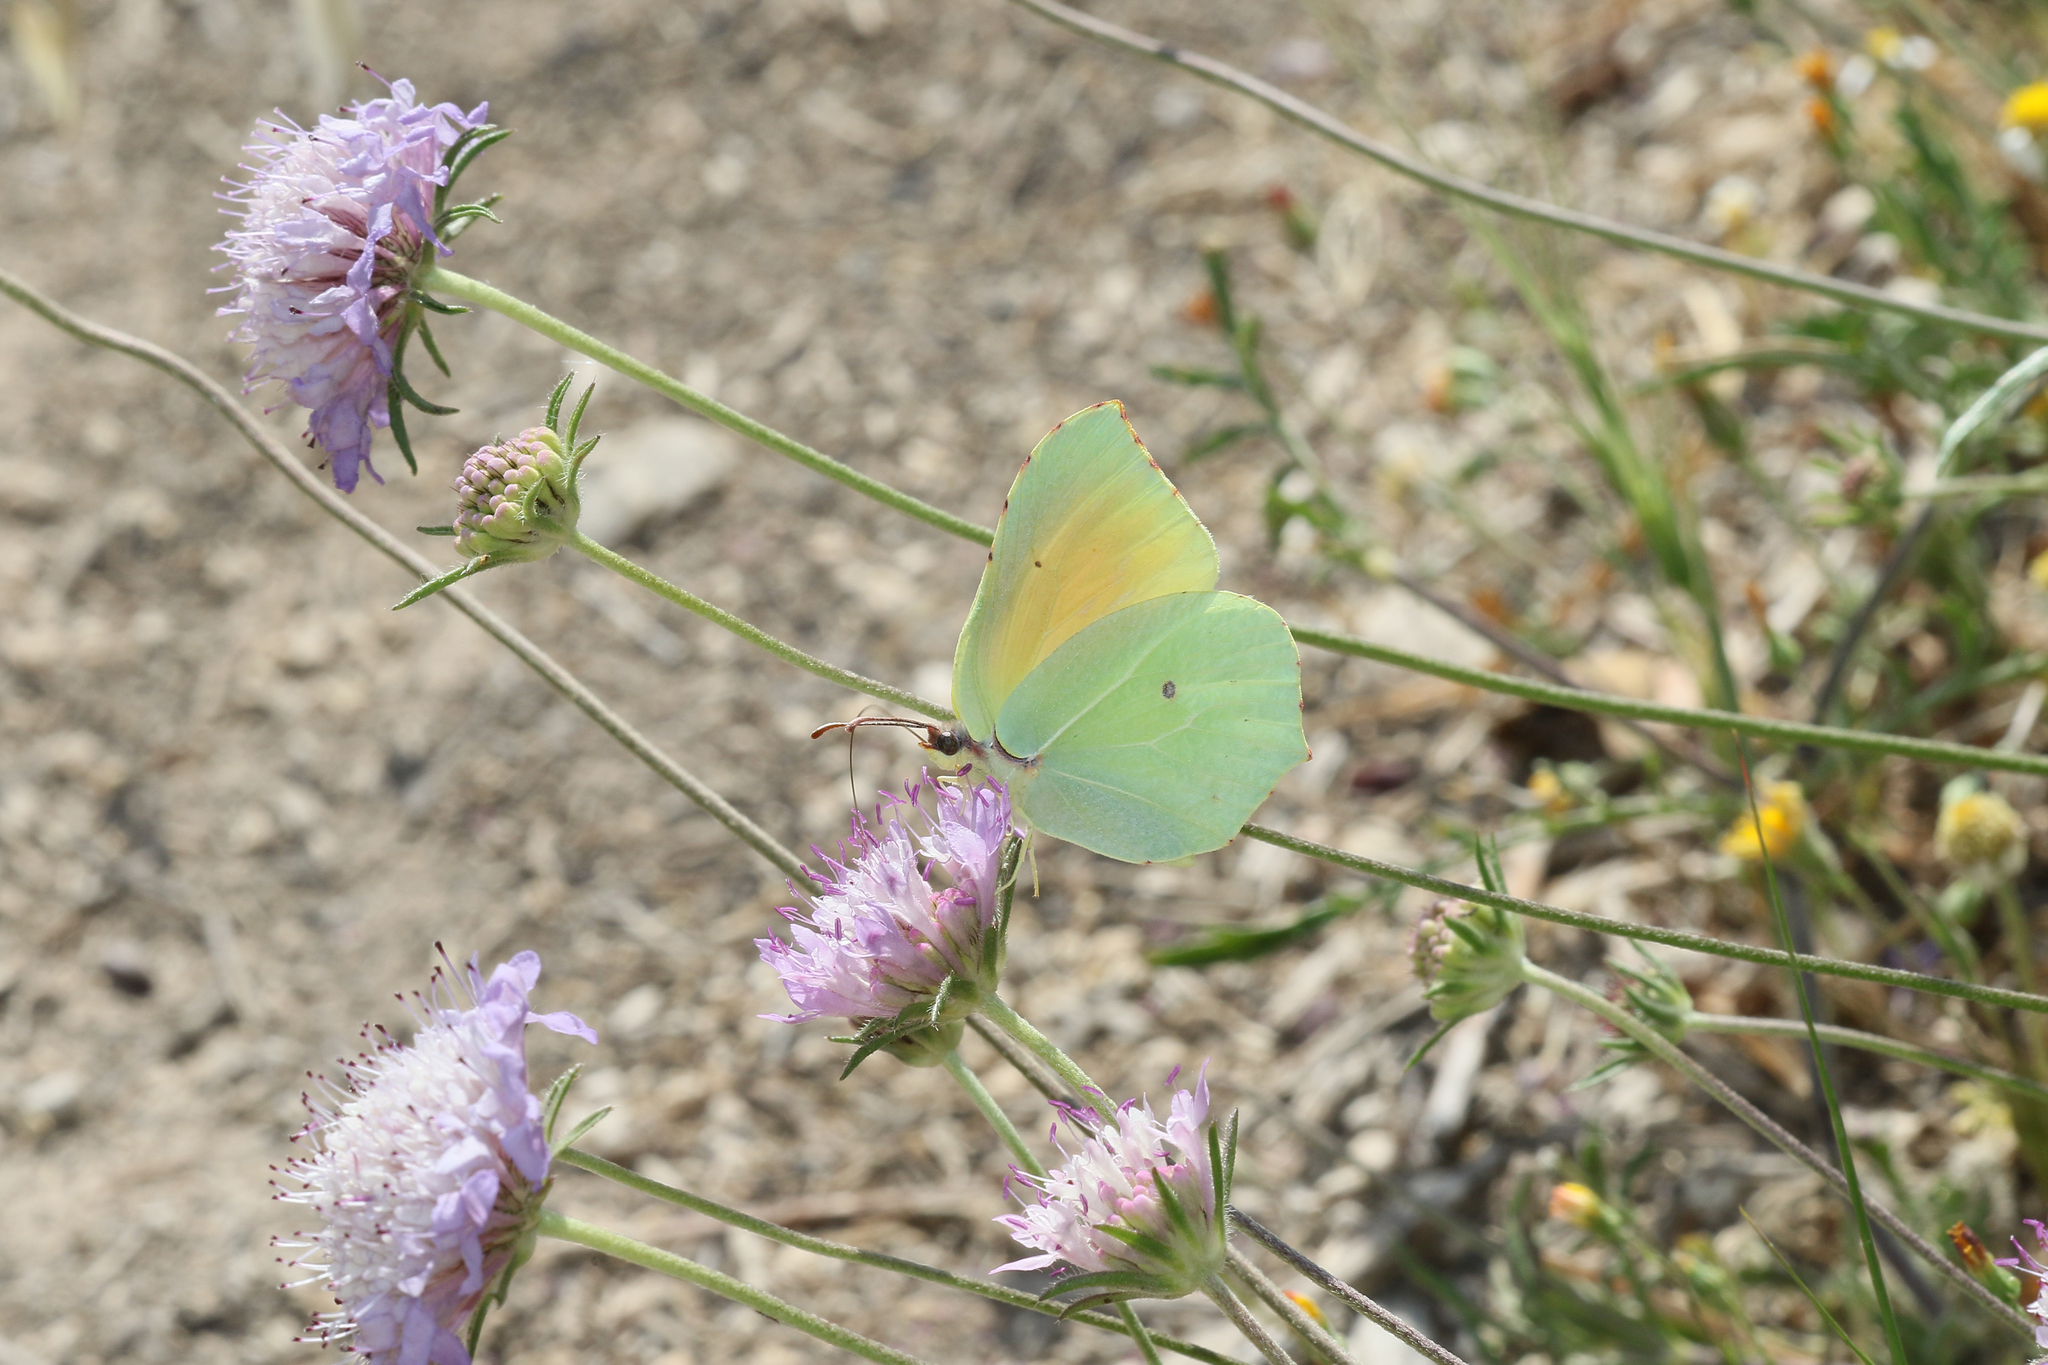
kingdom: Animalia
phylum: Arthropoda
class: Insecta
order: Lepidoptera
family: Pieridae
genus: Gonepteryx
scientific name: Gonepteryx cleopatra
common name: Cleopatra
